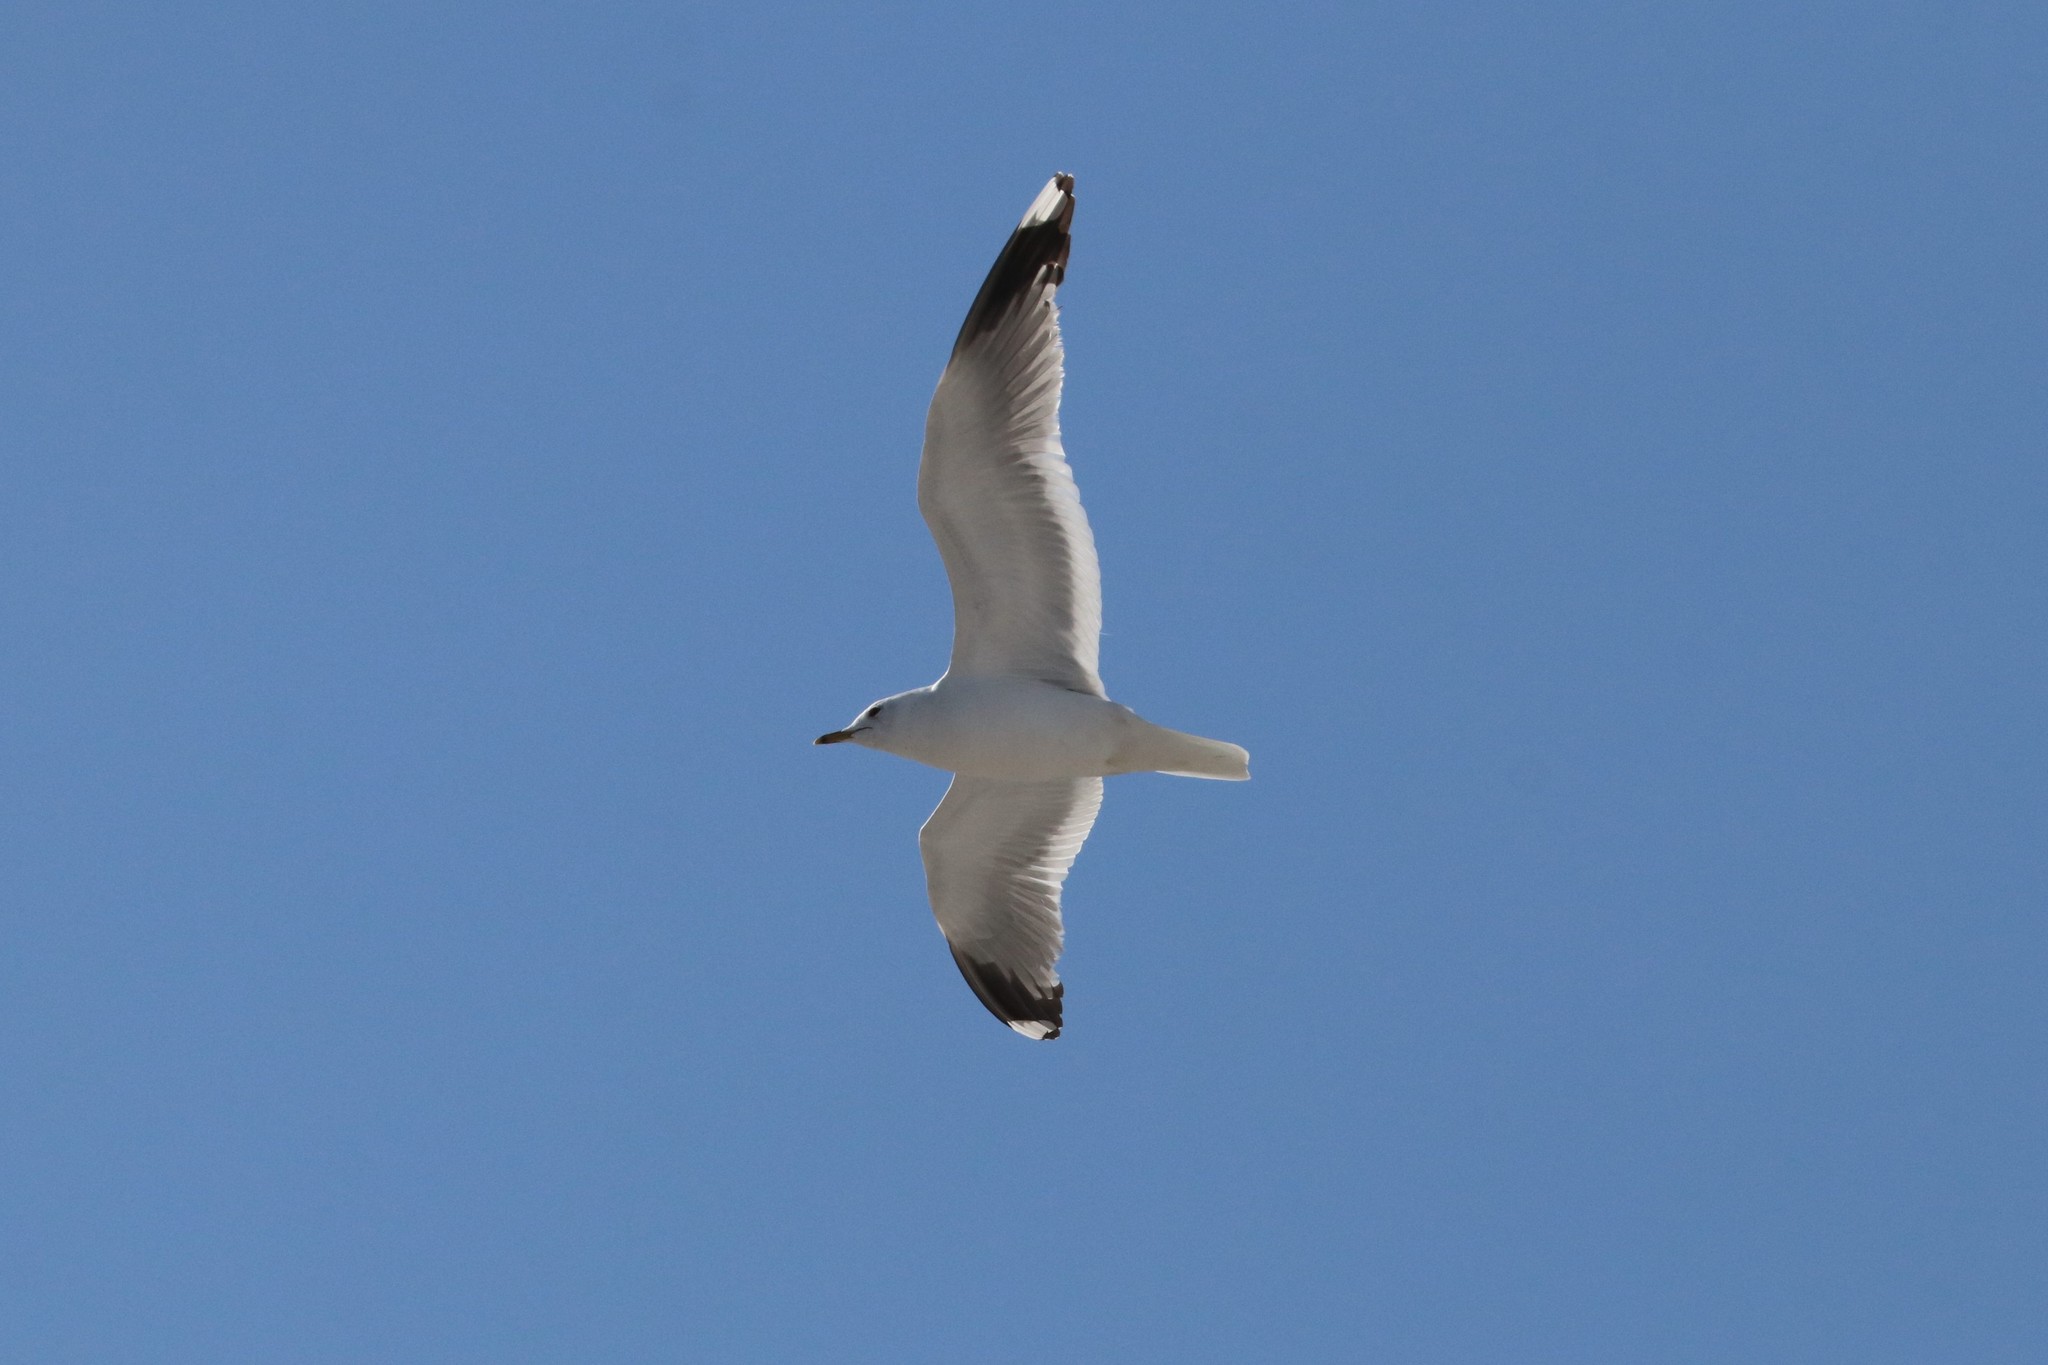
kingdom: Animalia
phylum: Chordata
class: Aves
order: Charadriiformes
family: Laridae
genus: Larus
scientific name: Larus canus
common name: Mew gull
